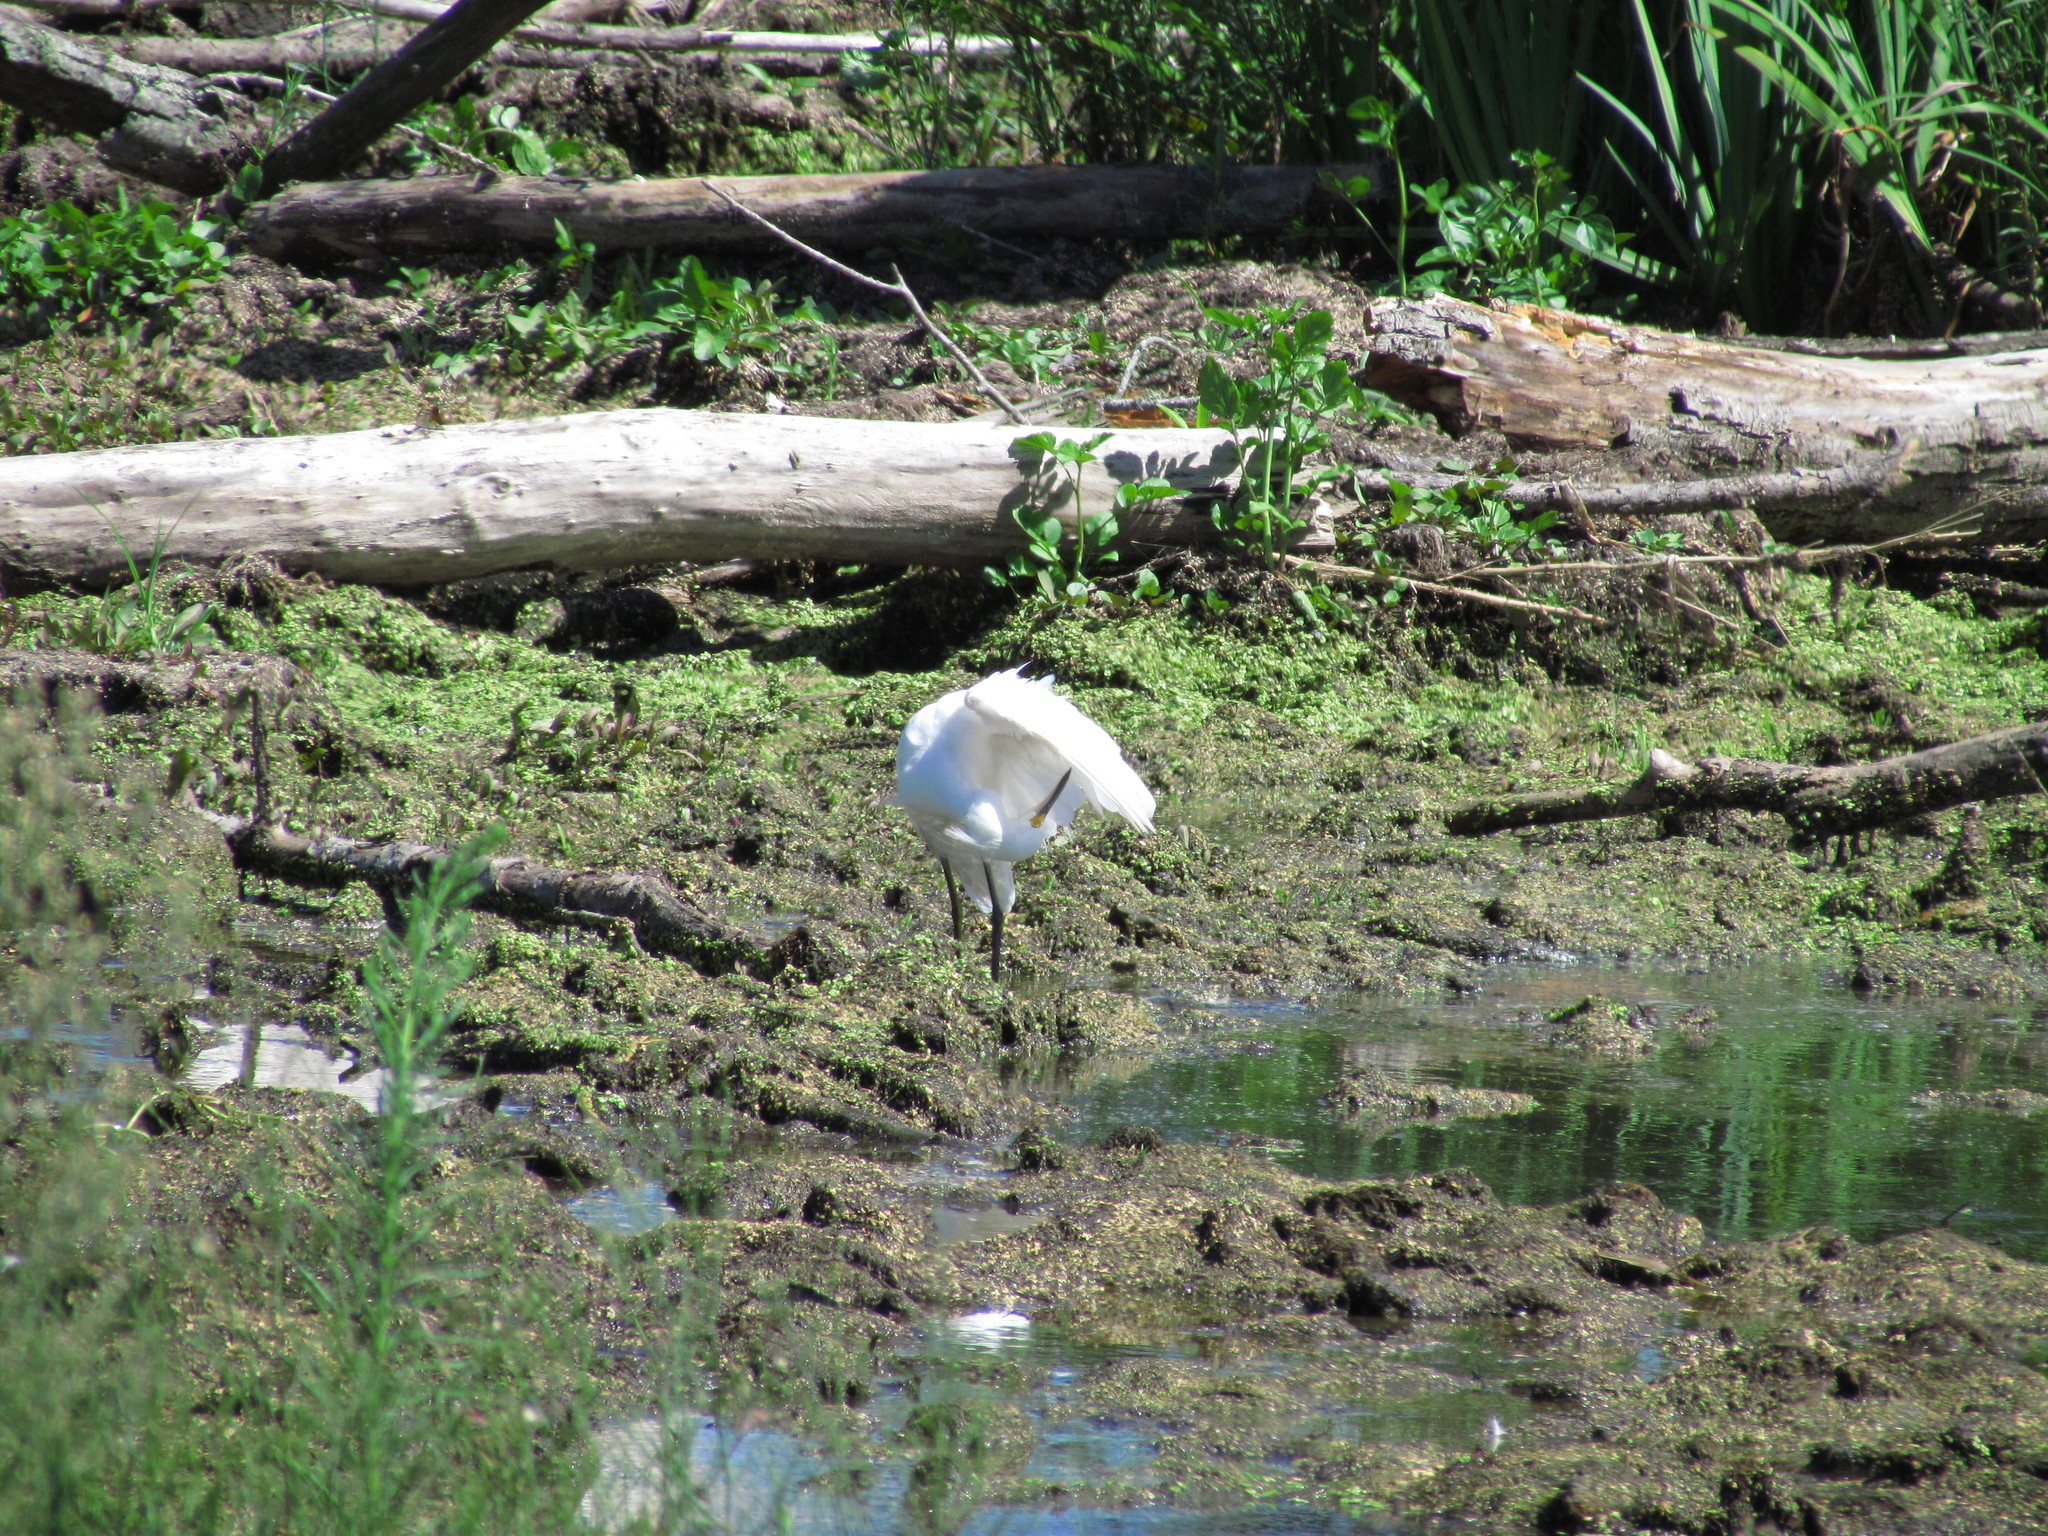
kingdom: Animalia
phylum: Chordata
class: Aves
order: Pelecaniformes
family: Ardeidae
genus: Egretta
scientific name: Egretta thula
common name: Snowy egret
